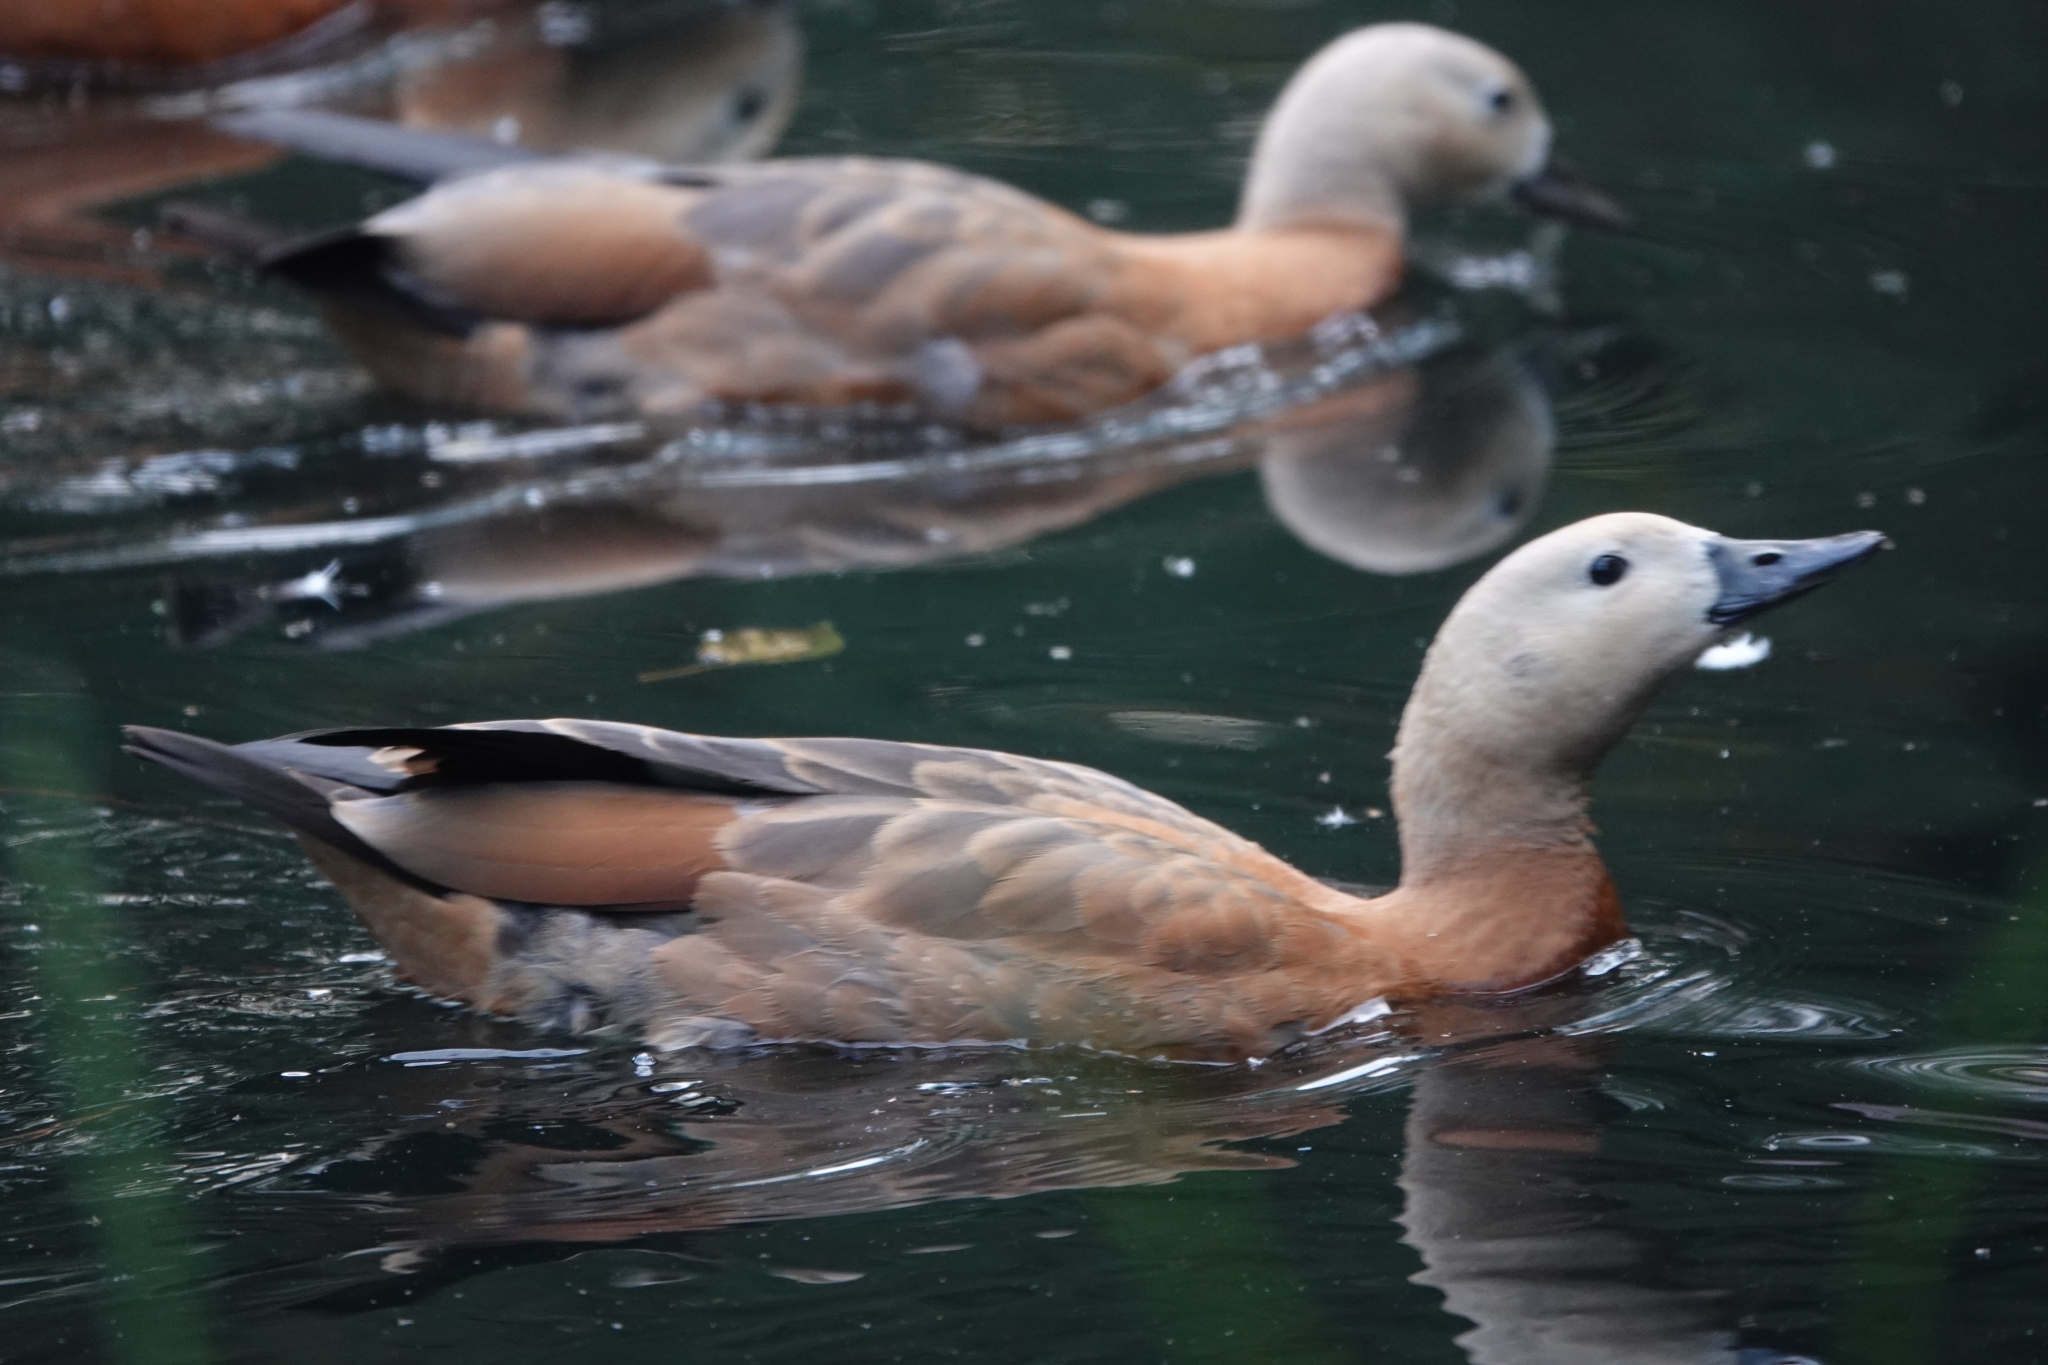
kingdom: Animalia
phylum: Chordata
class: Aves
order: Anseriformes
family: Anatidae
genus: Tadorna
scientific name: Tadorna ferruginea
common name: Ruddy shelduck
